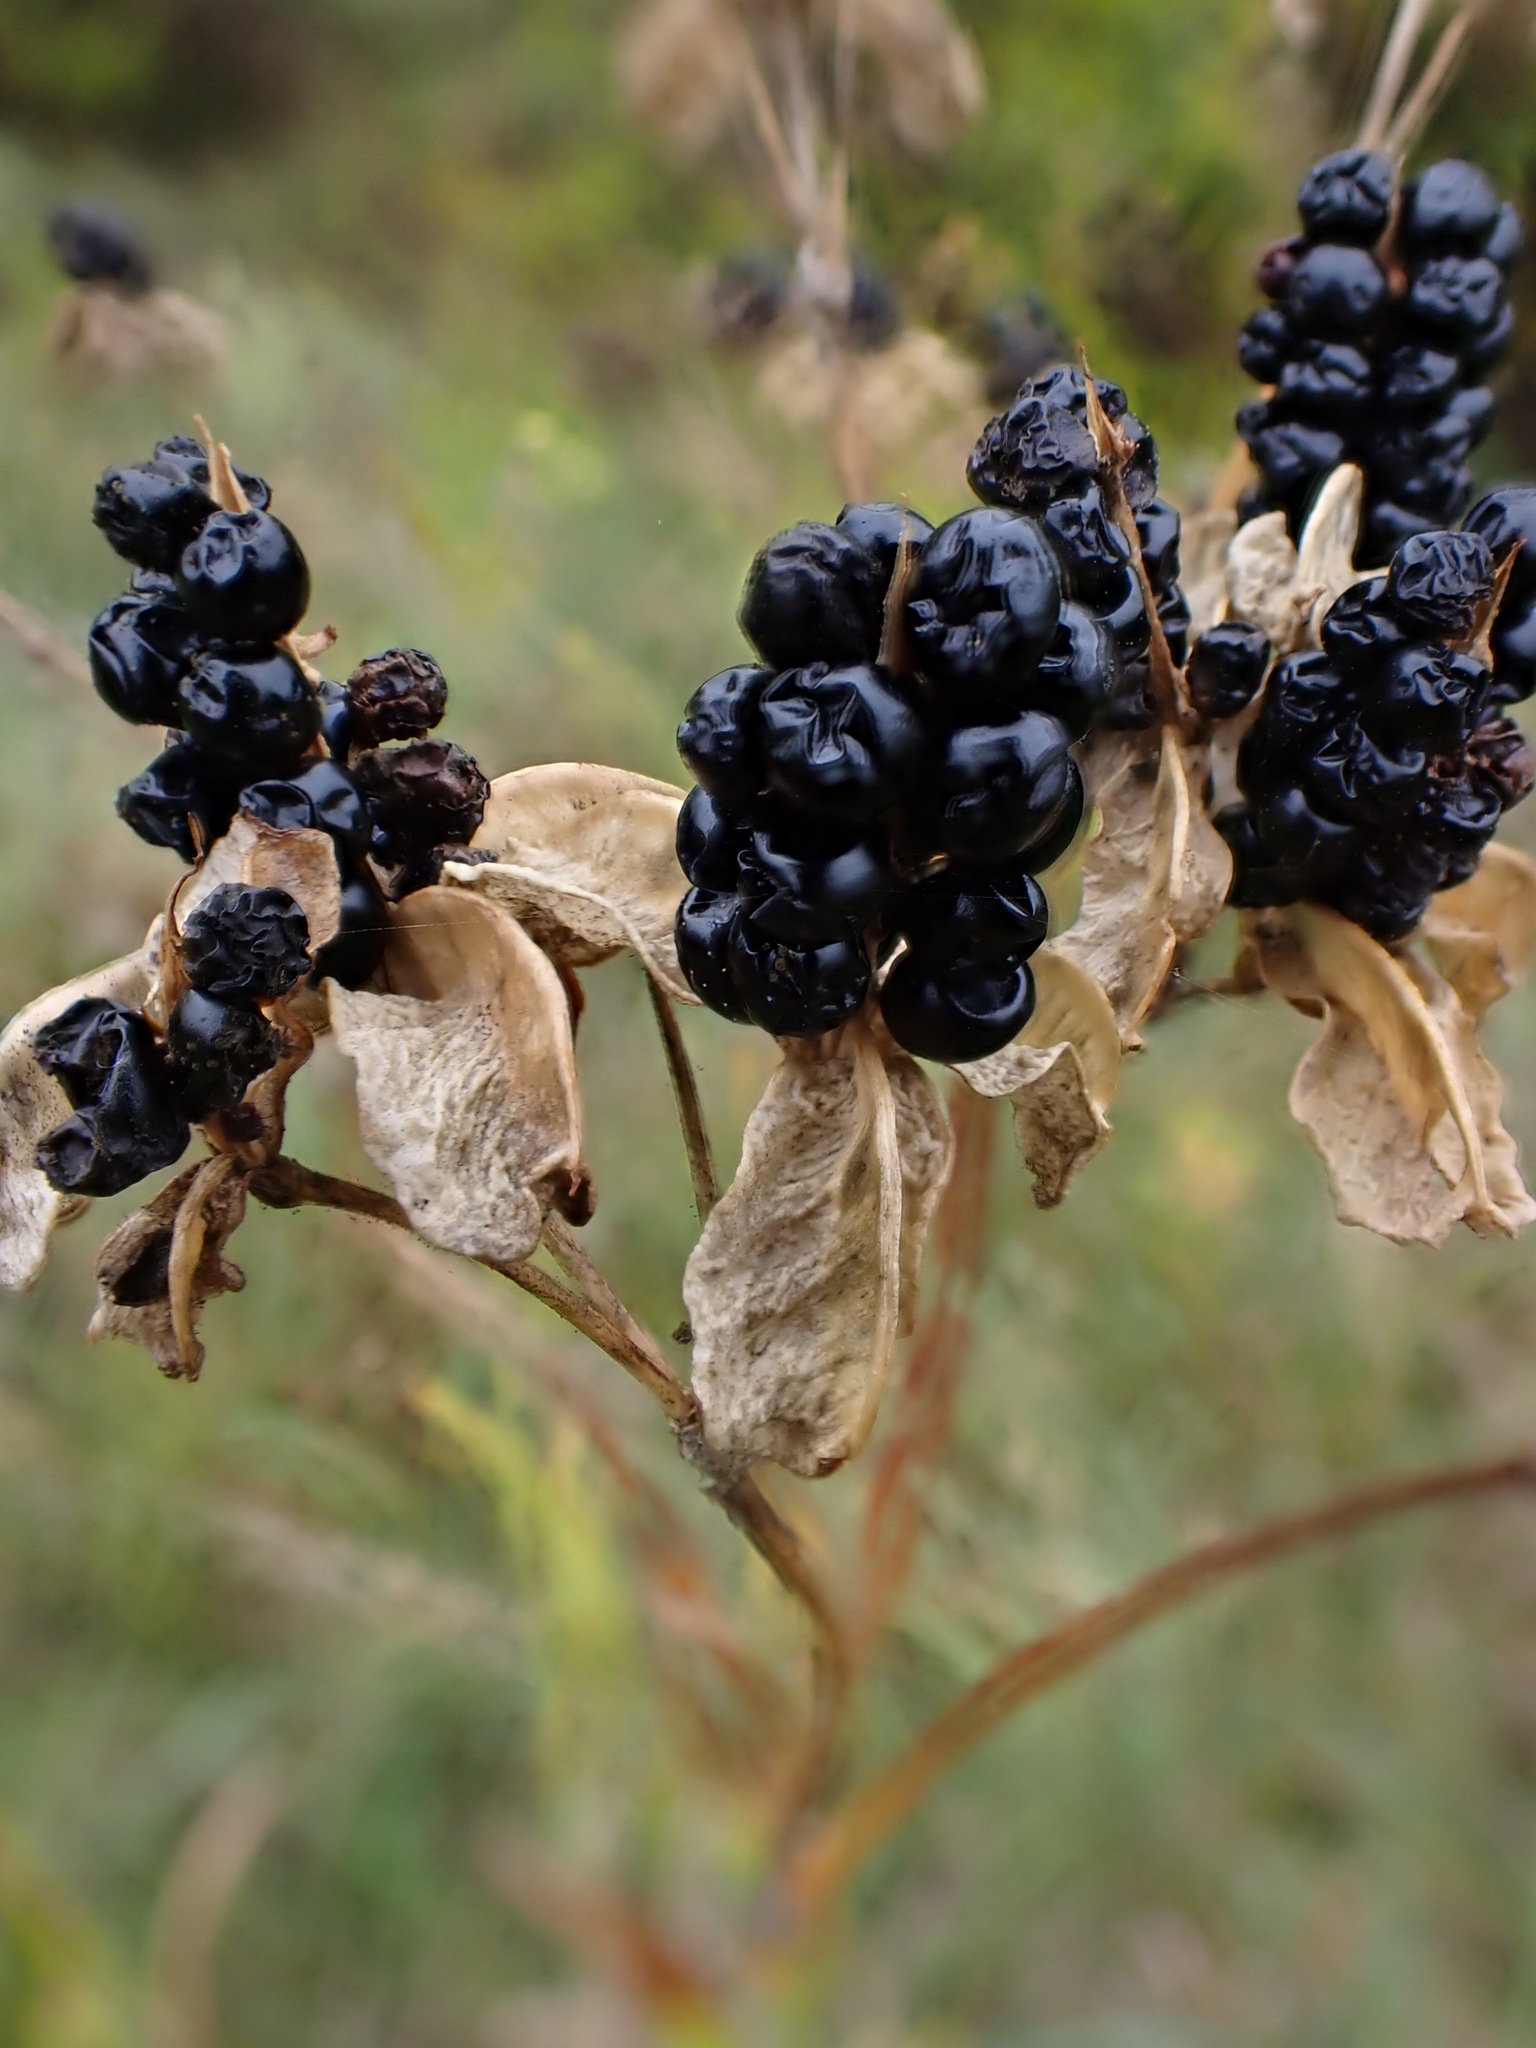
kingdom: Plantae
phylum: Tracheophyta
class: Liliopsida
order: Asparagales
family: Iridaceae
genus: Iris
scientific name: Iris domestica
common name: Belamcanda
